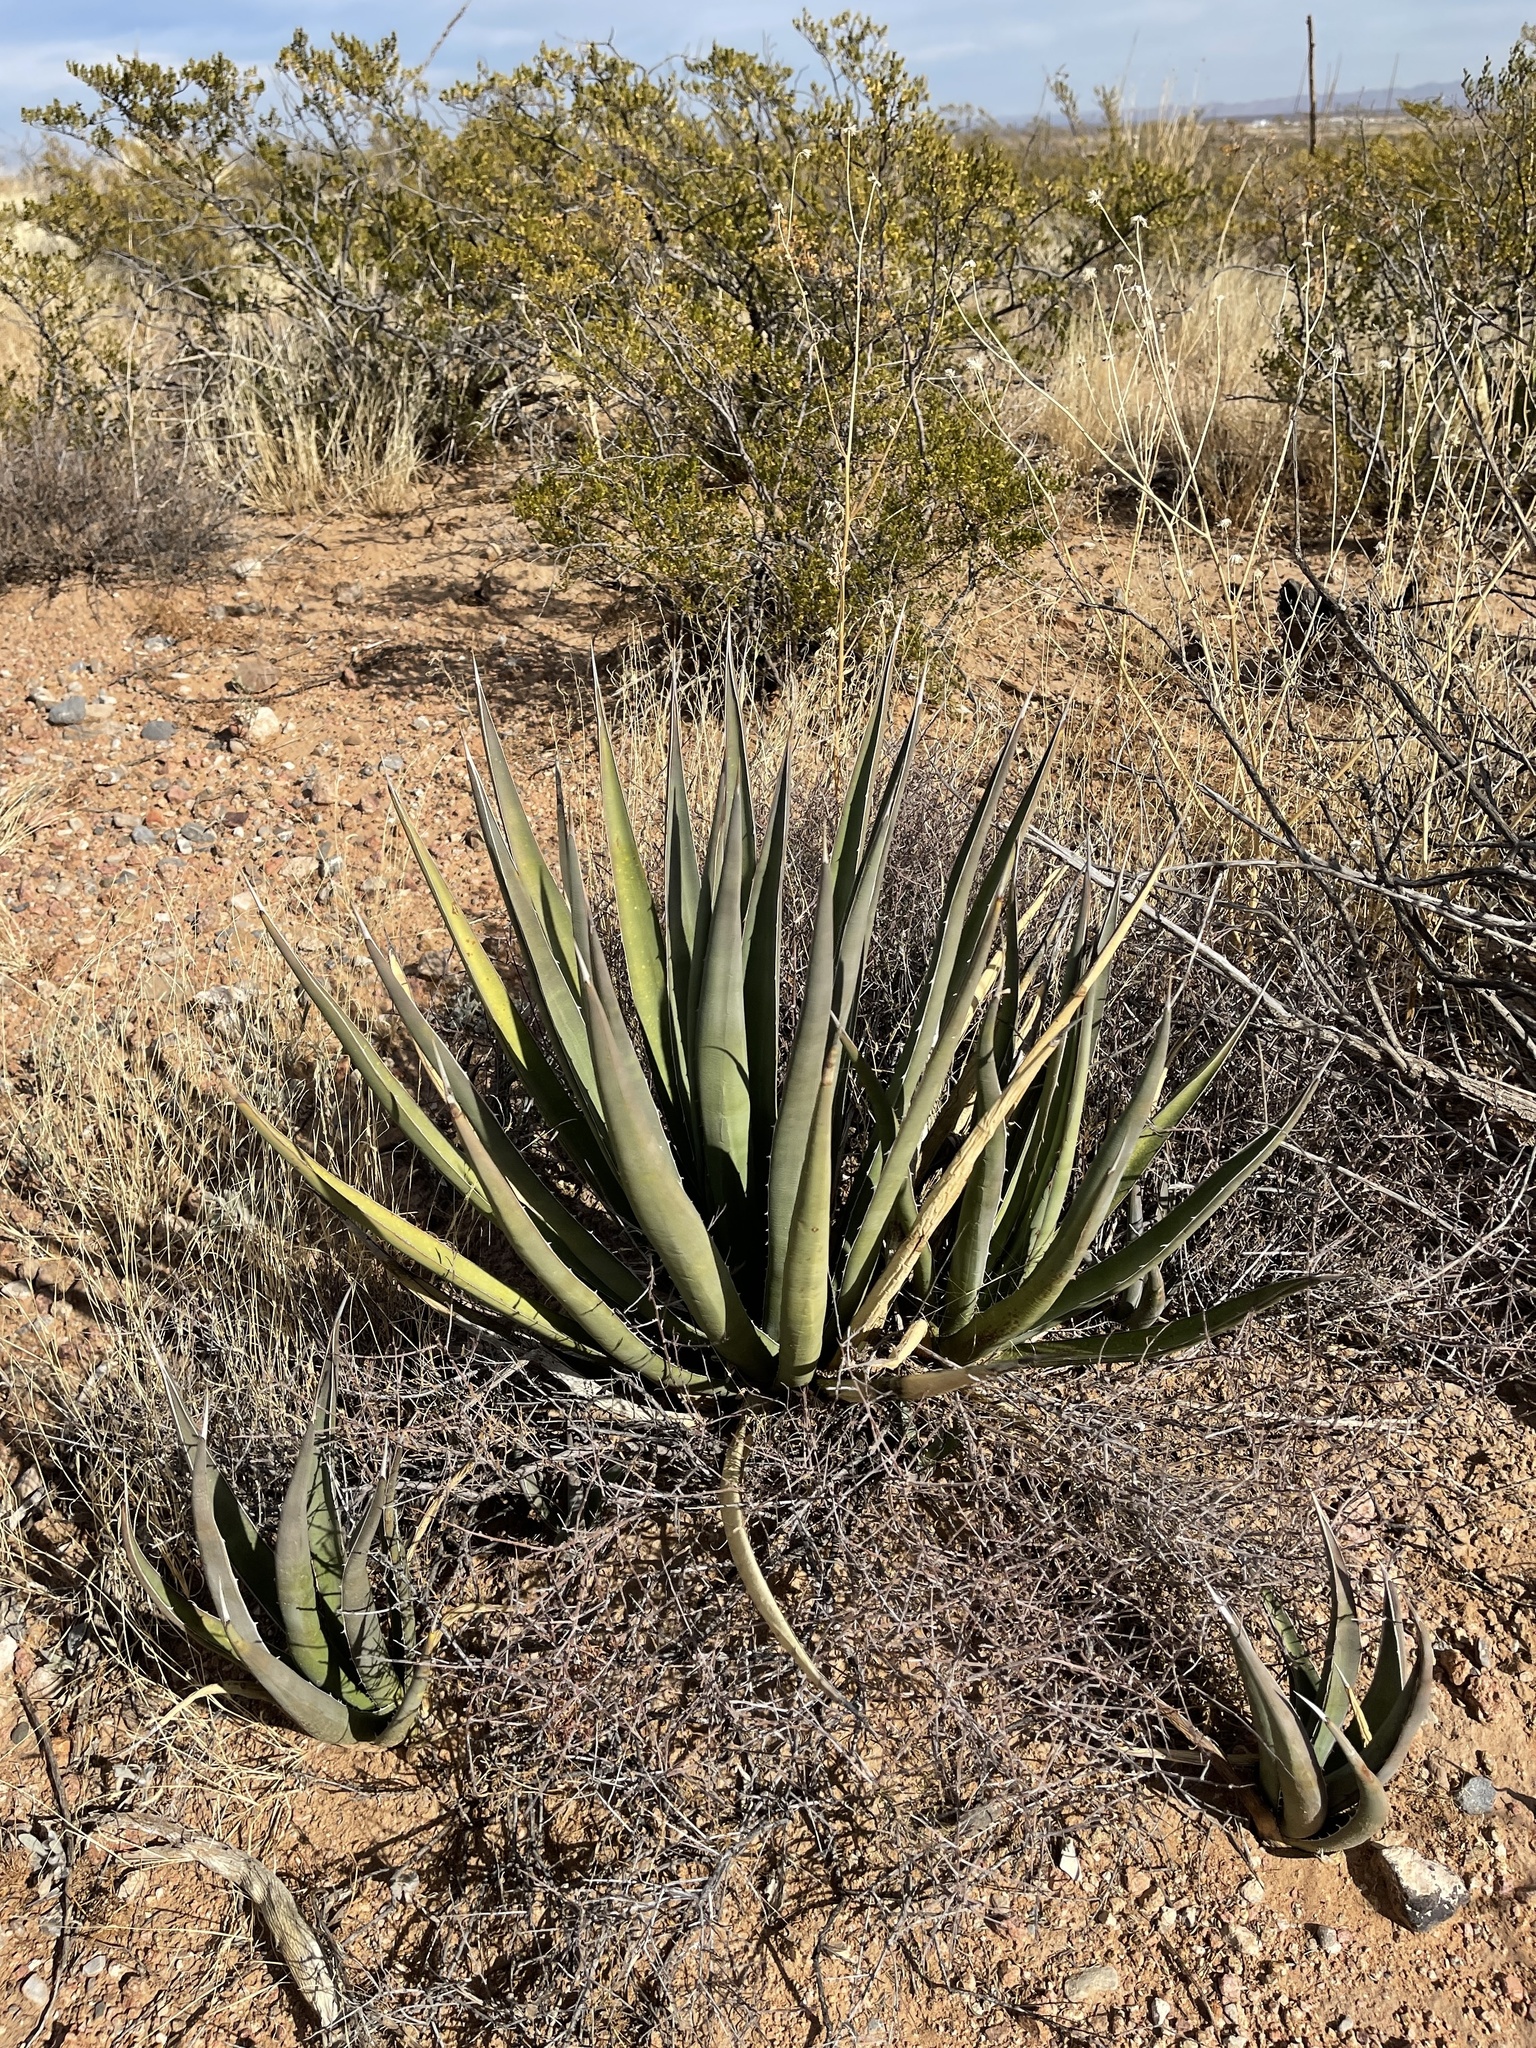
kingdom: Plantae
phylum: Tracheophyta
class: Liliopsida
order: Asparagales
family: Asparagaceae
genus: Agave
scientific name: Agave lechuguilla
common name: Lecheguilla agave
